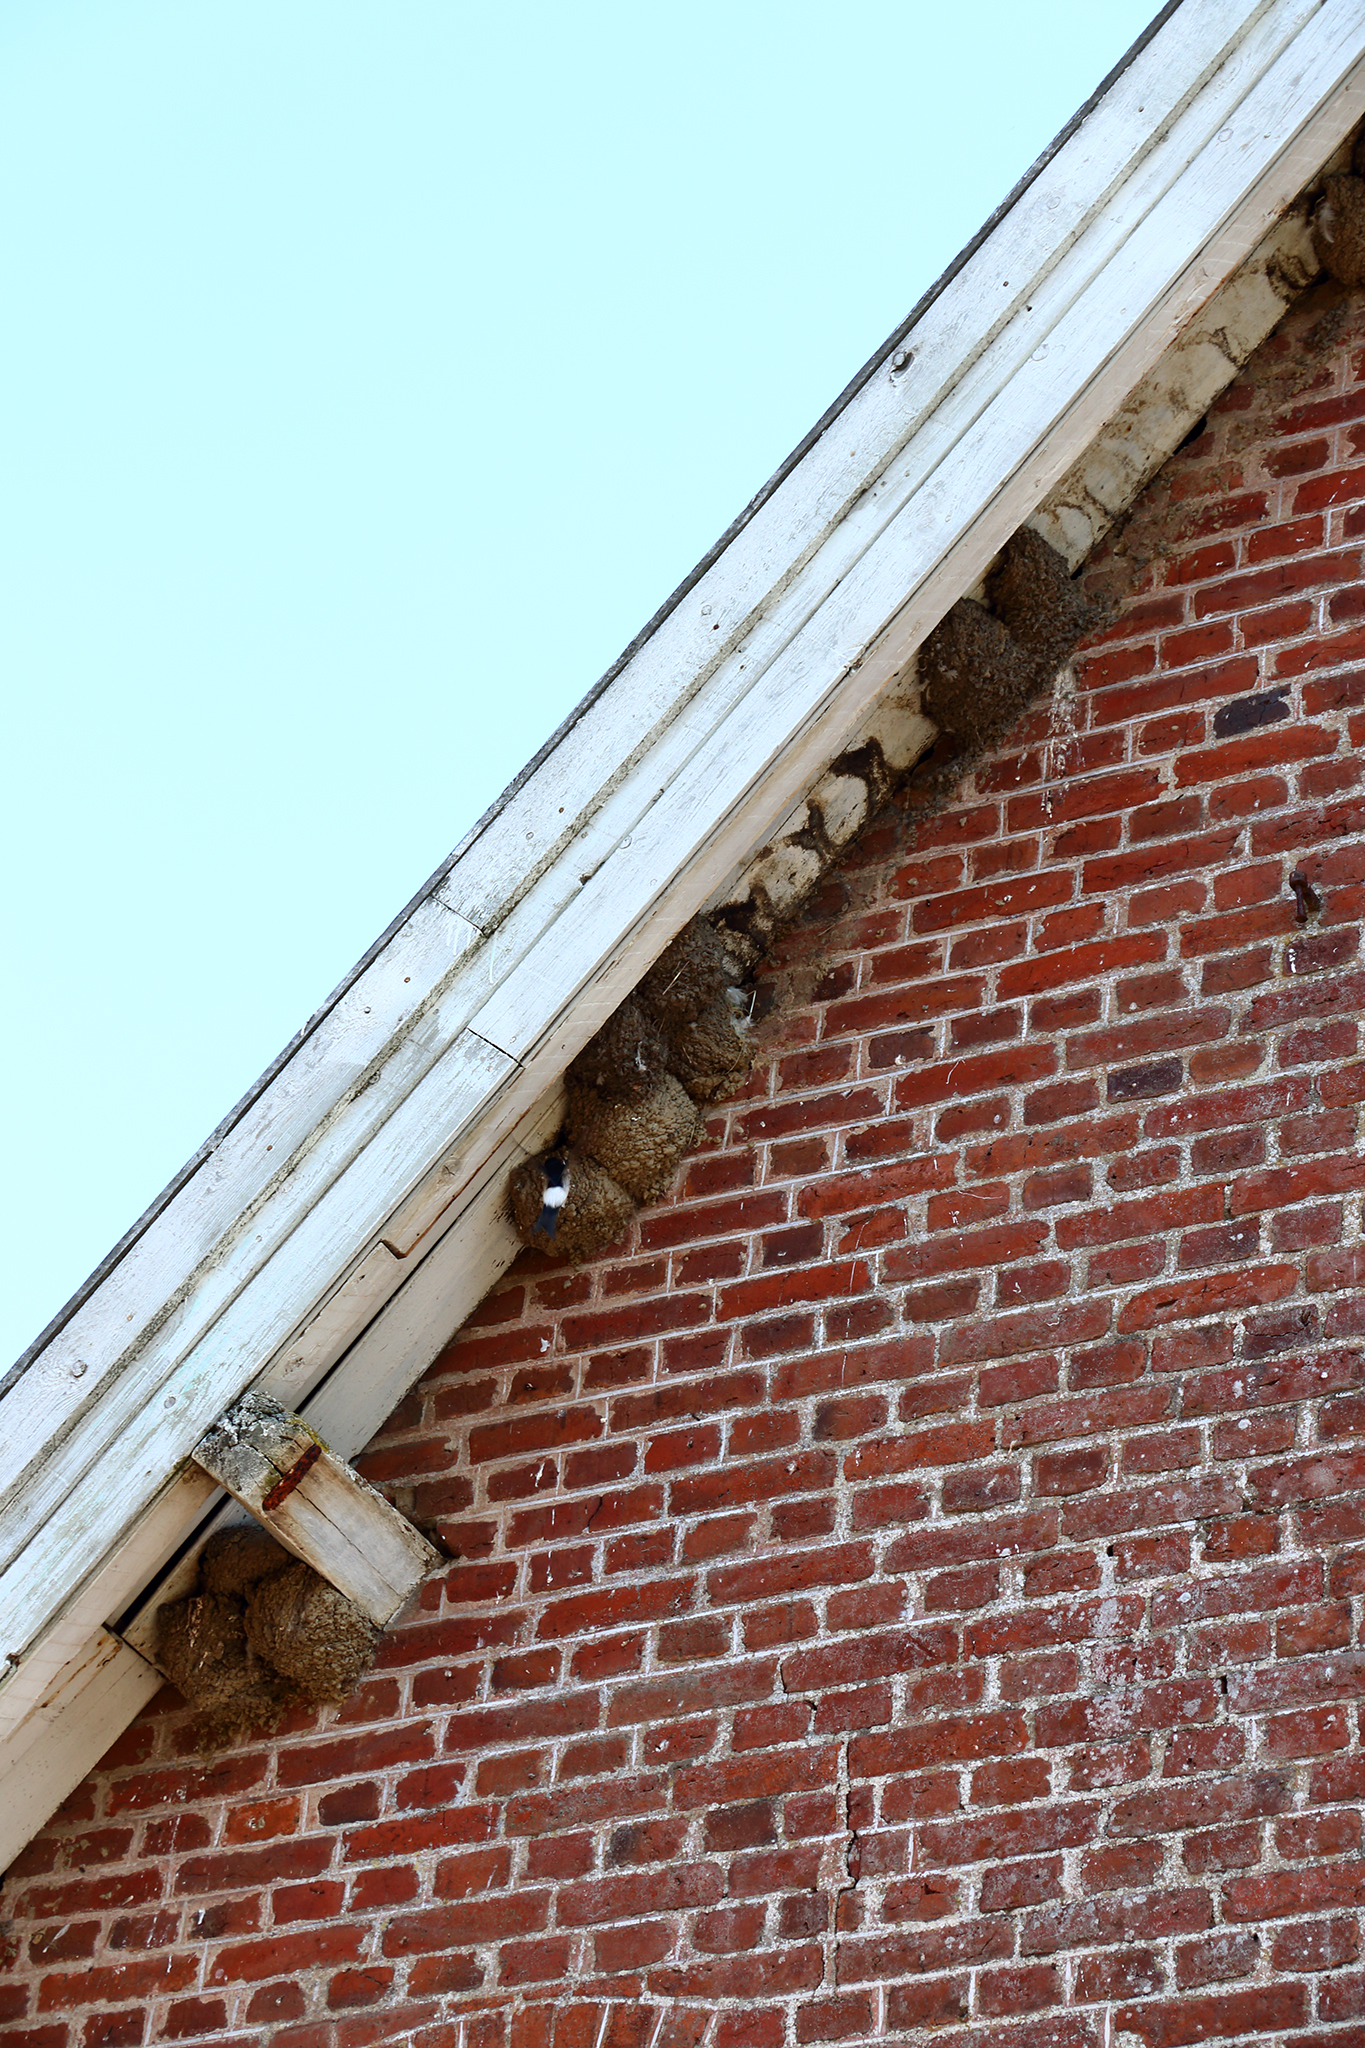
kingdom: Animalia
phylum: Chordata
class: Aves
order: Passeriformes
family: Hirundinidae
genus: Delichon
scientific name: Delichon urbicum
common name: Common house martin
